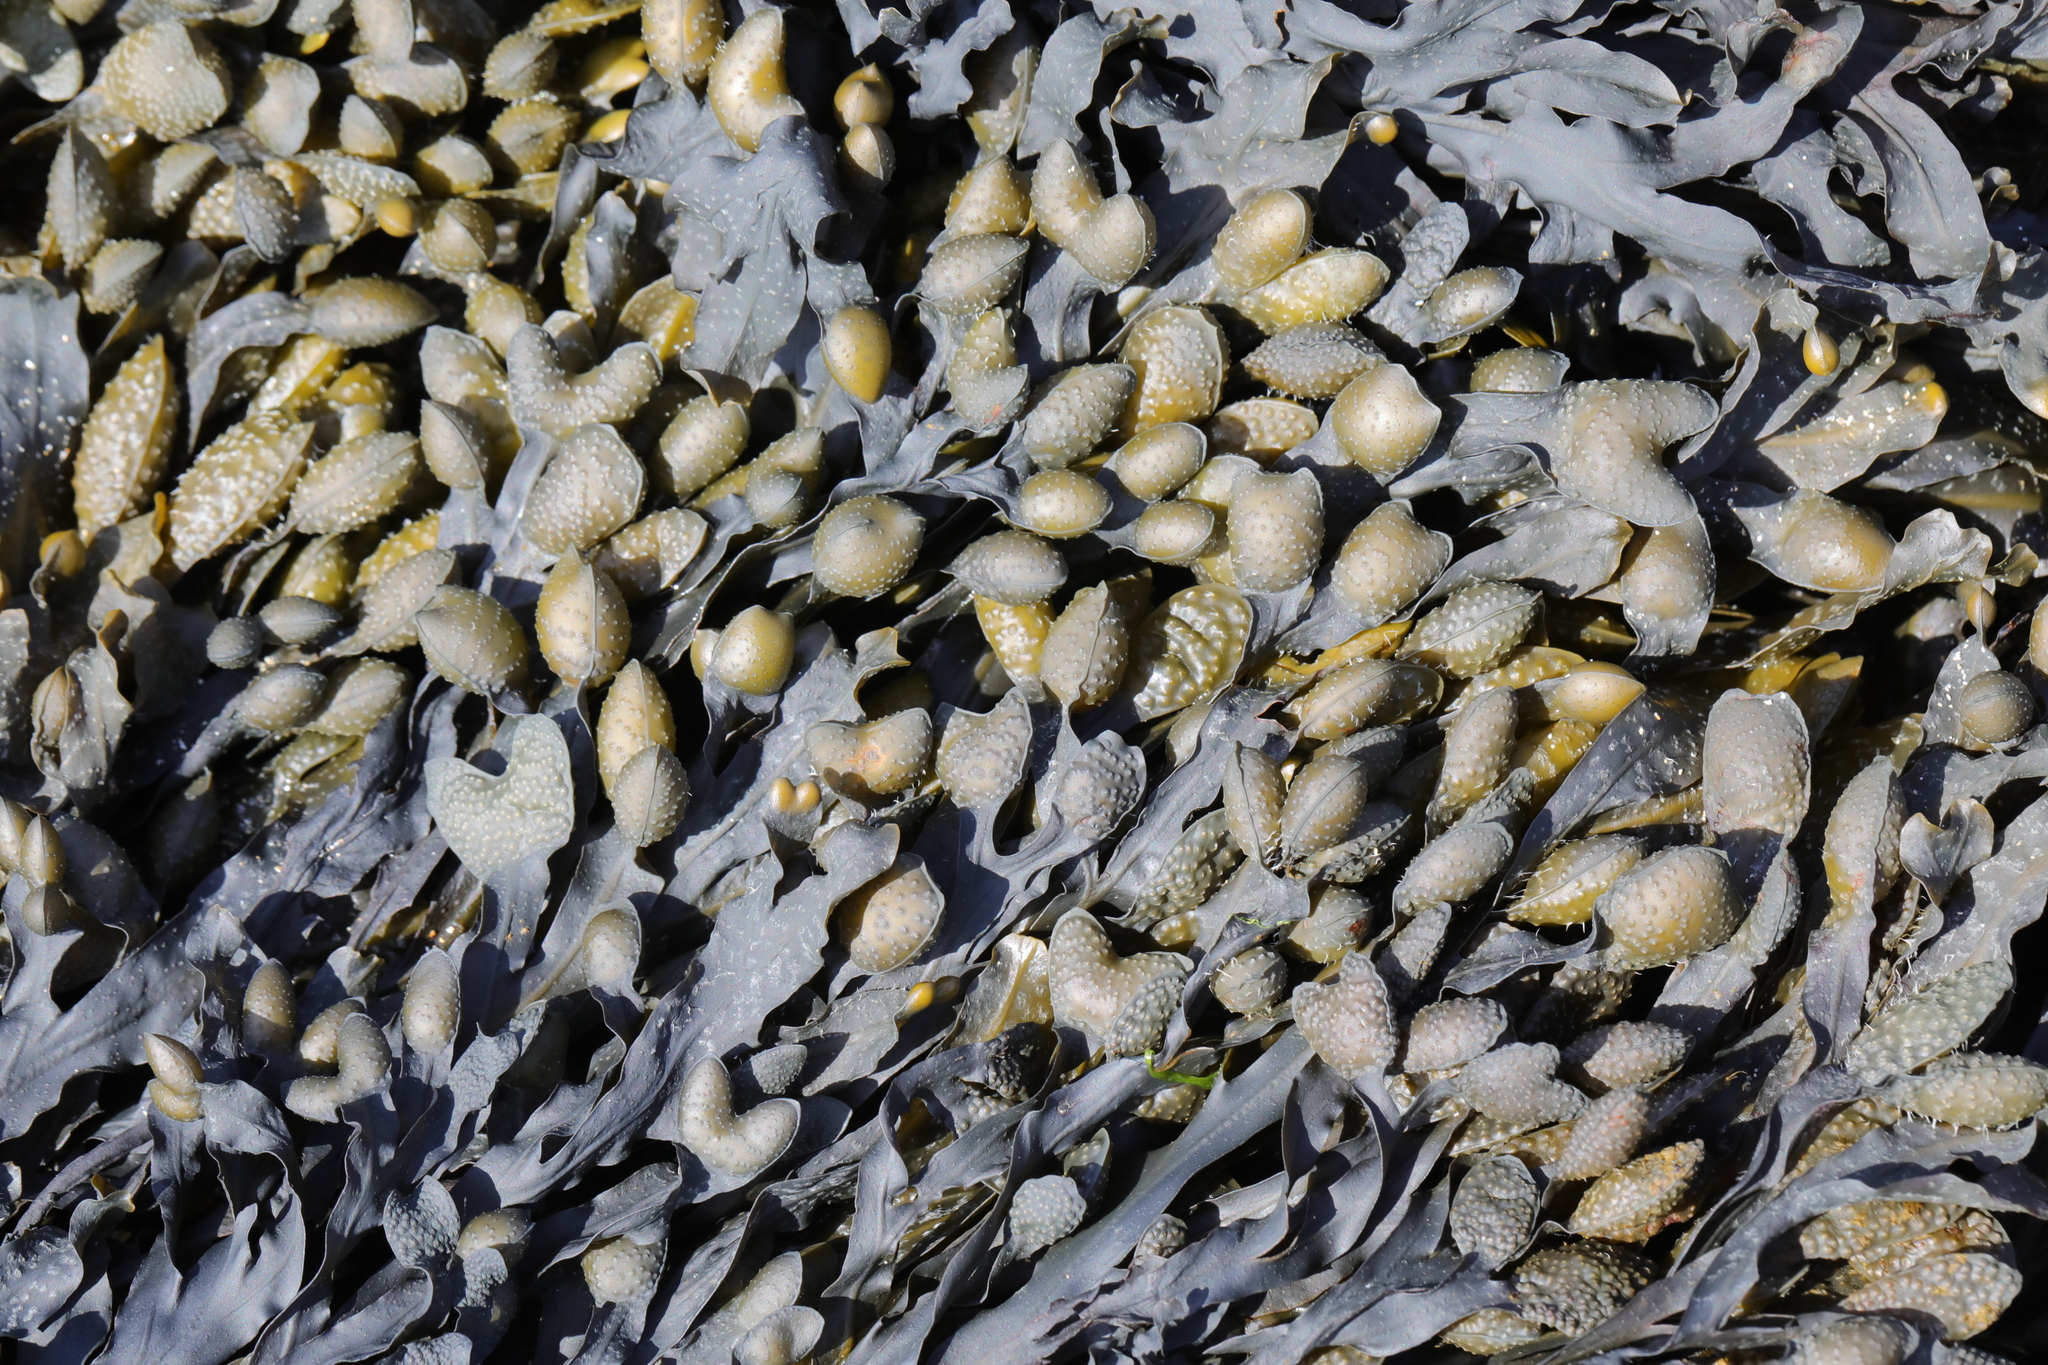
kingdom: Chromista
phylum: Ochrophyta
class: Phaeophyceae
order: Fucales
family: Fucaceae
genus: Fucus
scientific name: Fucus spiralis
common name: Spiral wrack
